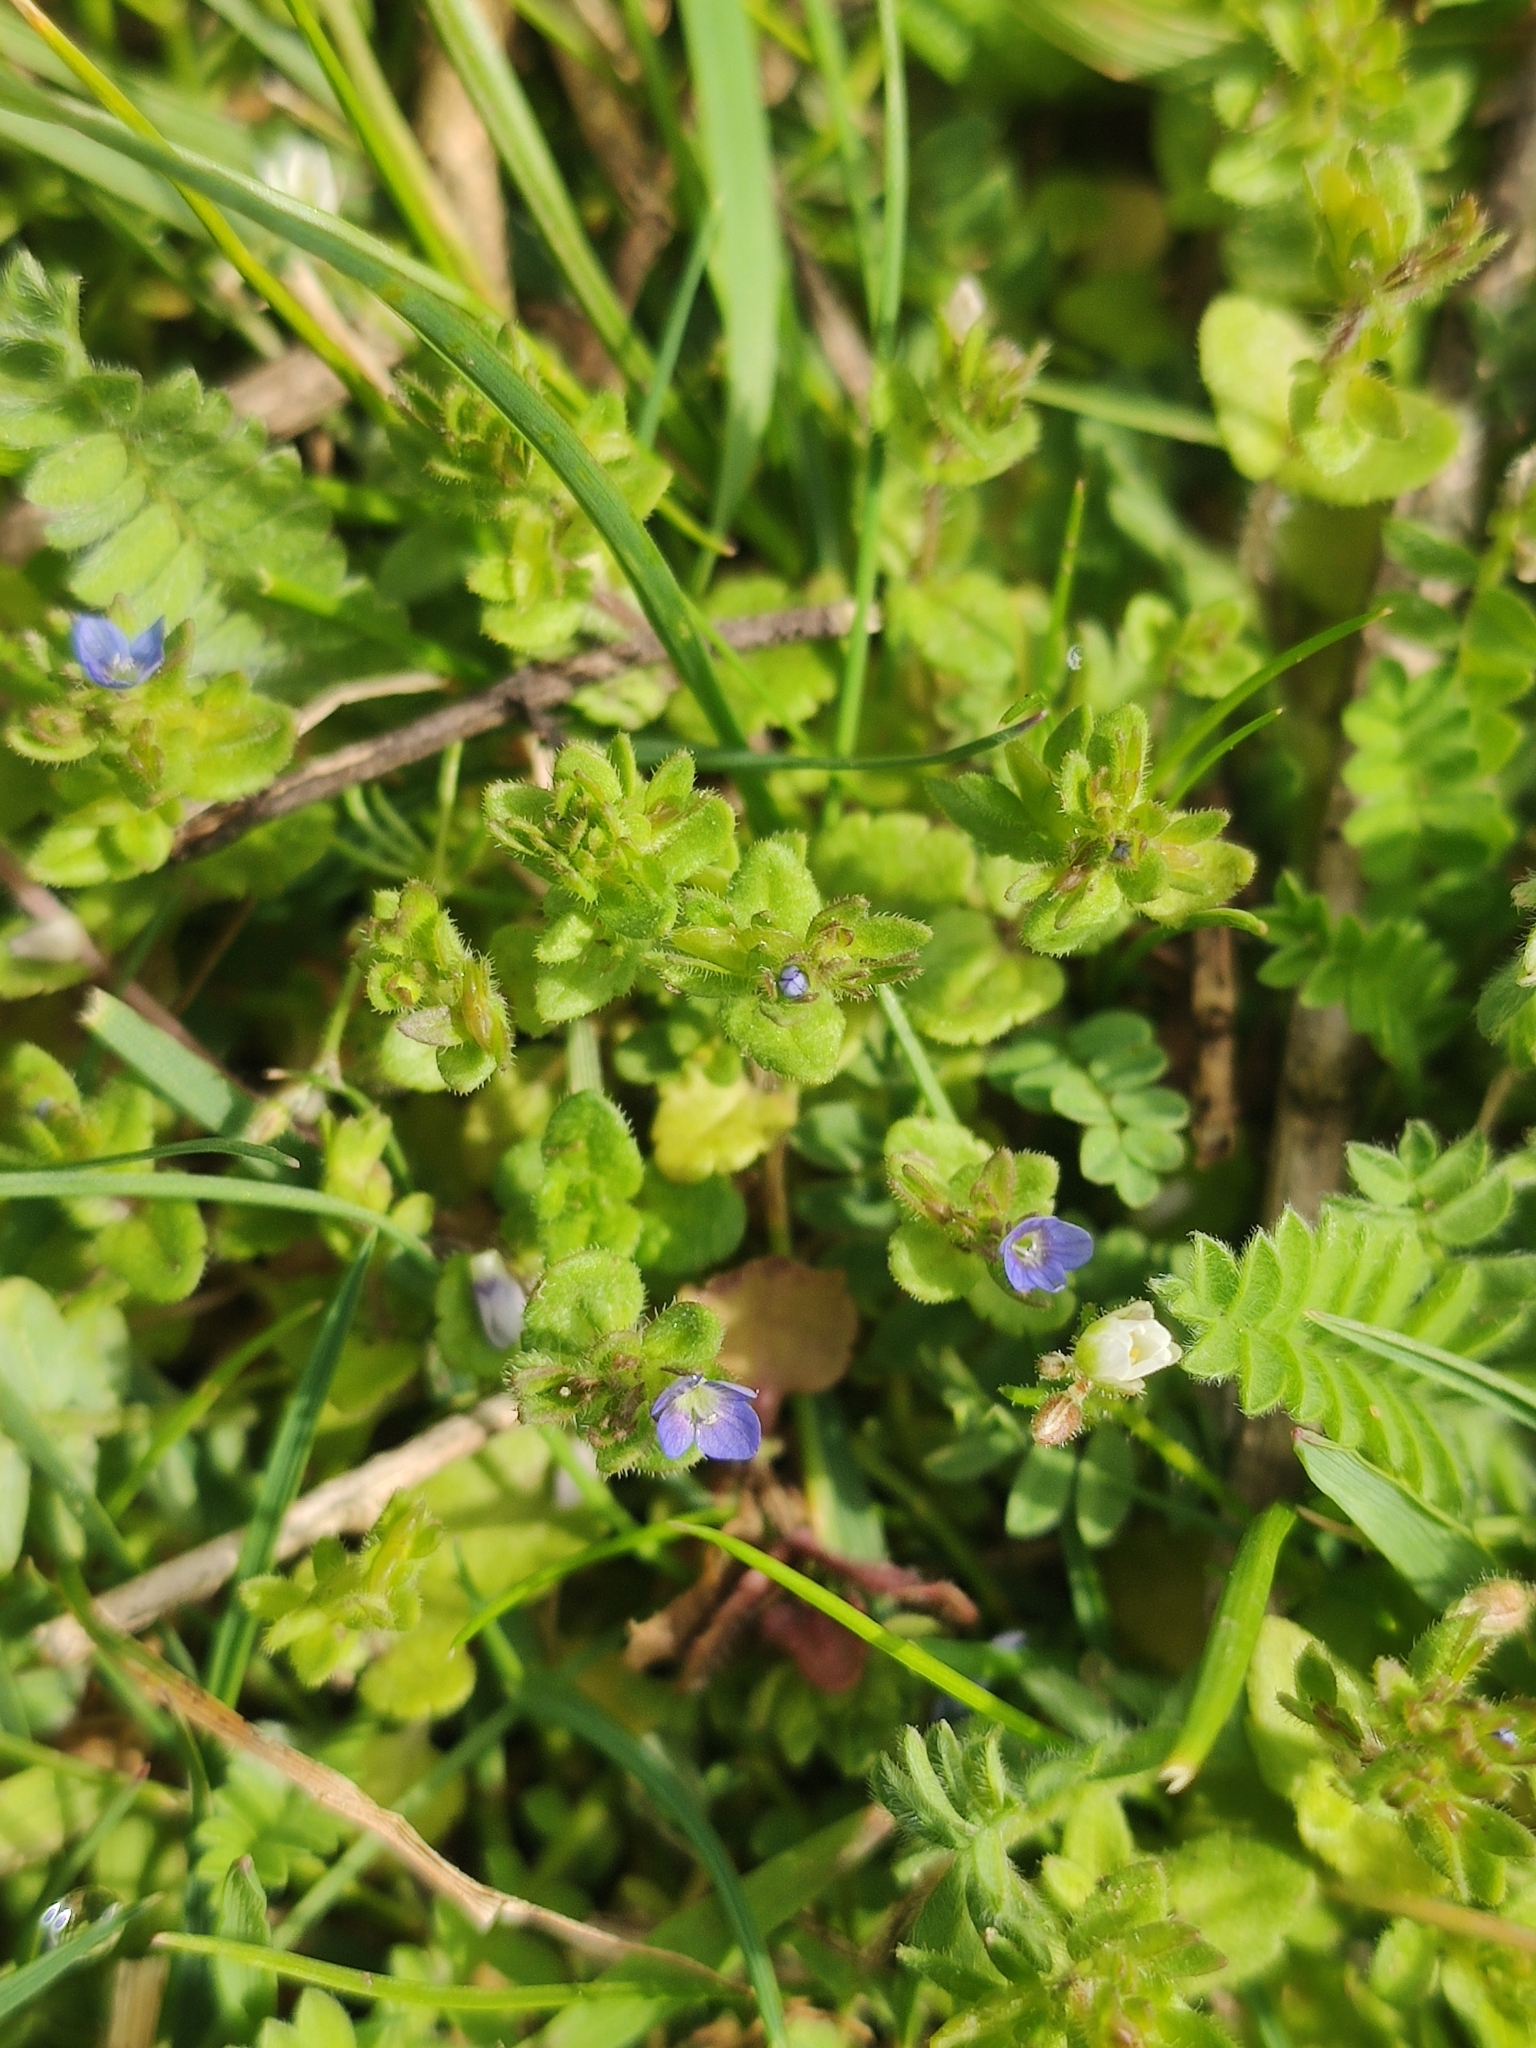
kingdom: Plantae
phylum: Tracheophyta
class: Magnoliopsida
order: Lamiales
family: Plantaginaceae
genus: Veronica
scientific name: Veronica arvensis
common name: Corn speedwell
